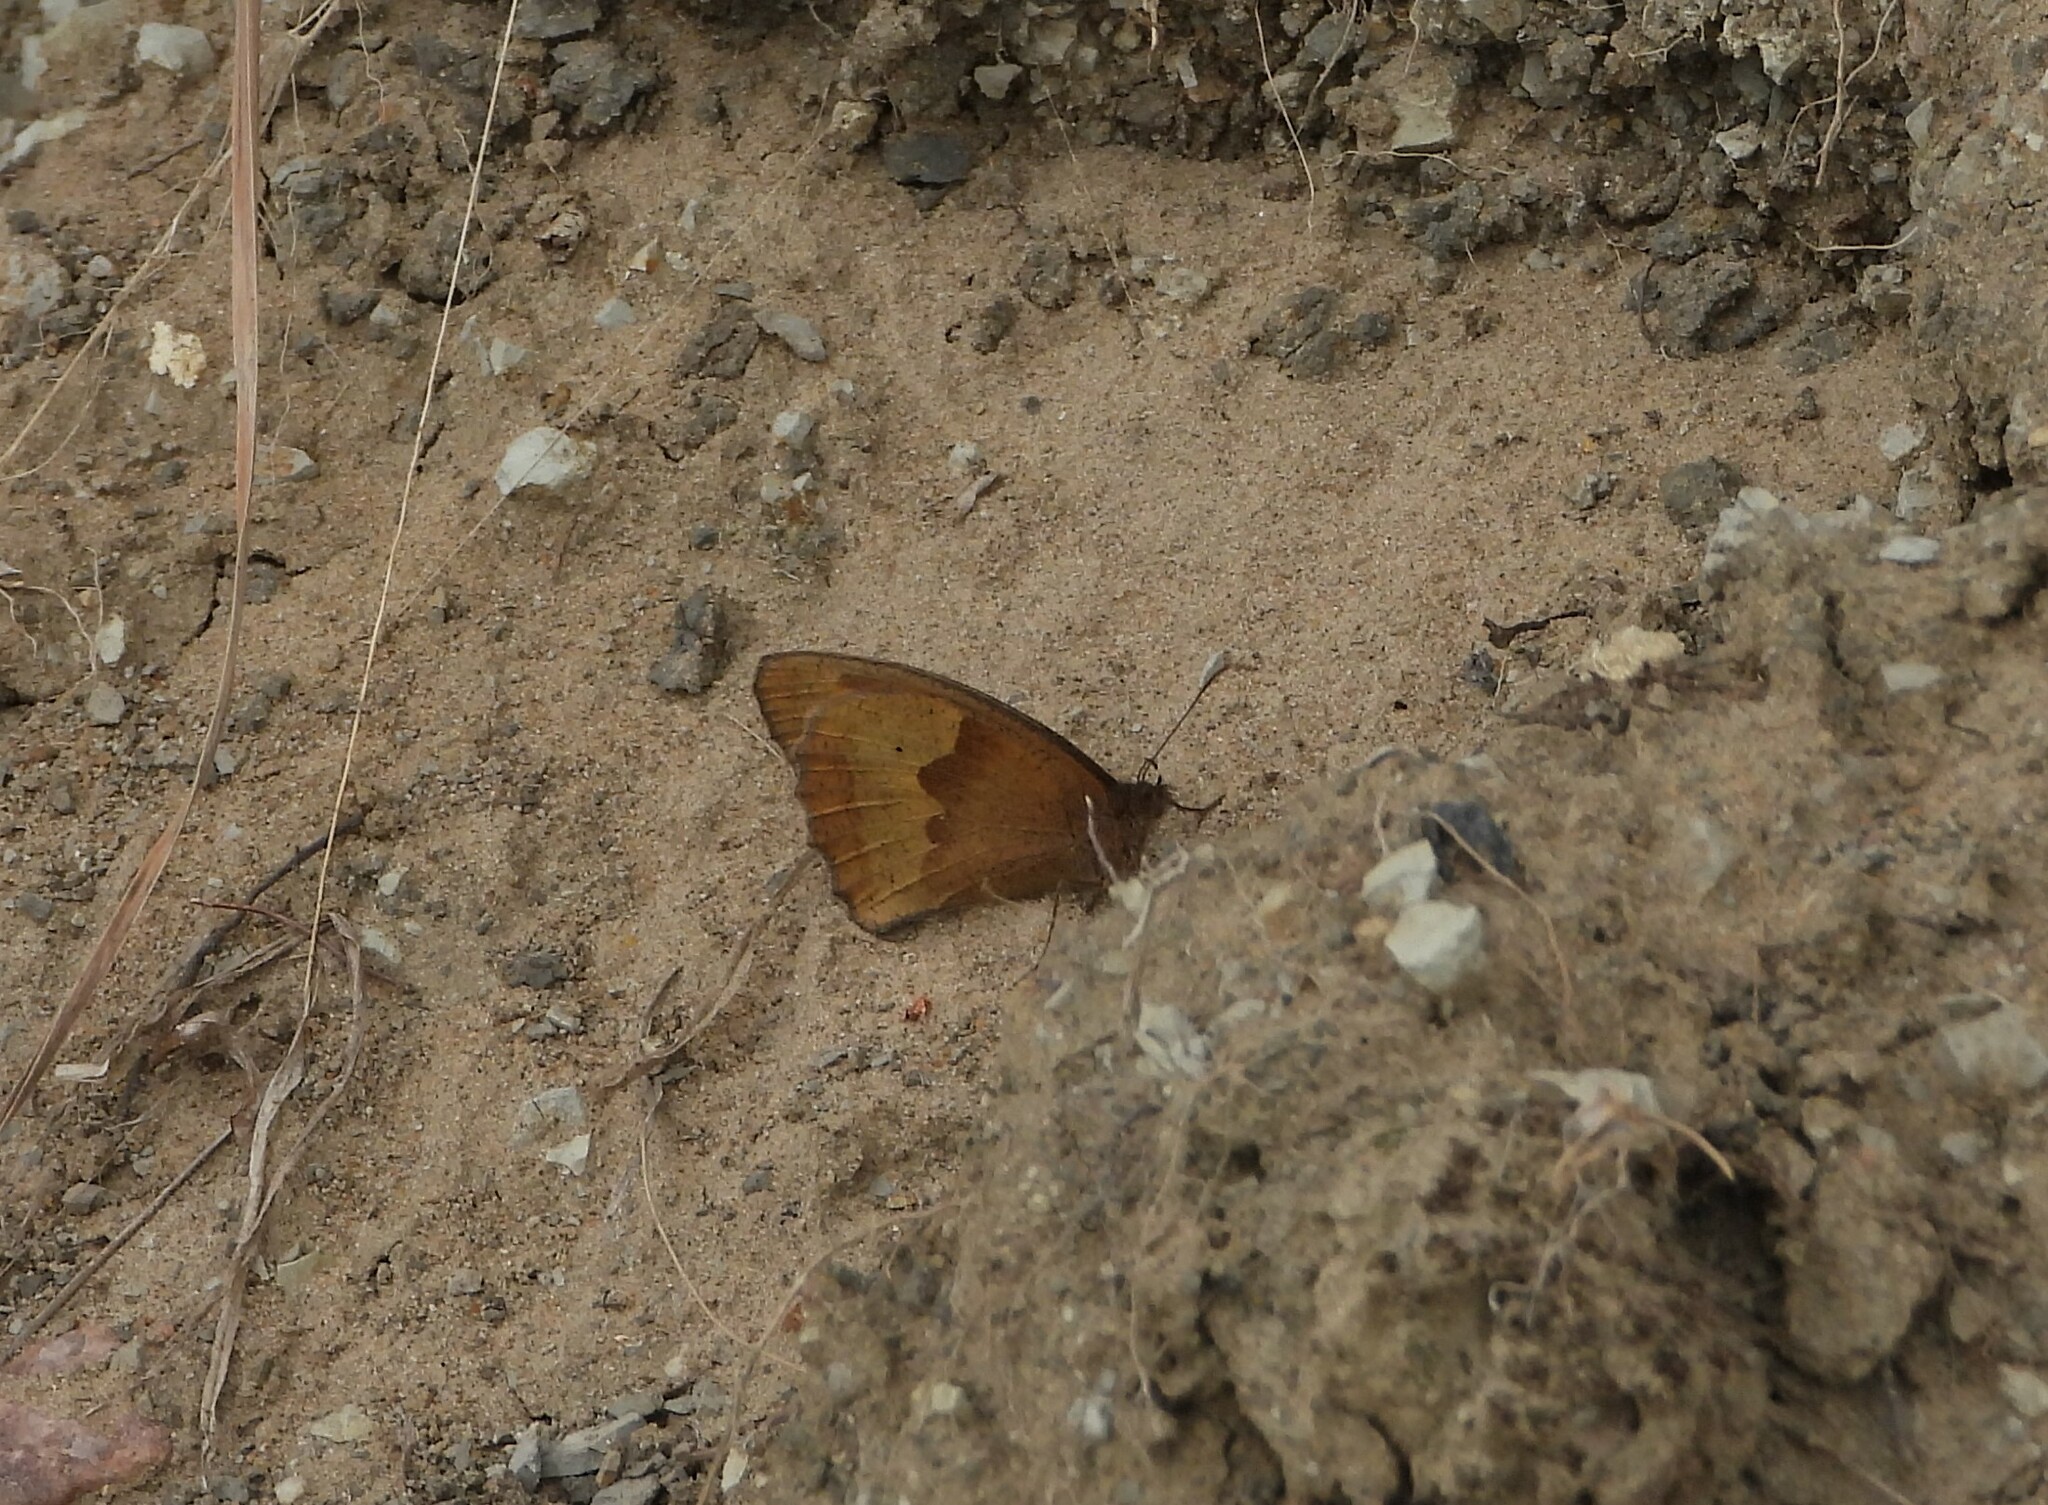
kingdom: Animalia
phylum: Arthropoda
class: Insecta
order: Lepidoptera
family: Nymphalidae
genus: Maniola
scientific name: Maniola jurtina
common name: Meadow brown
